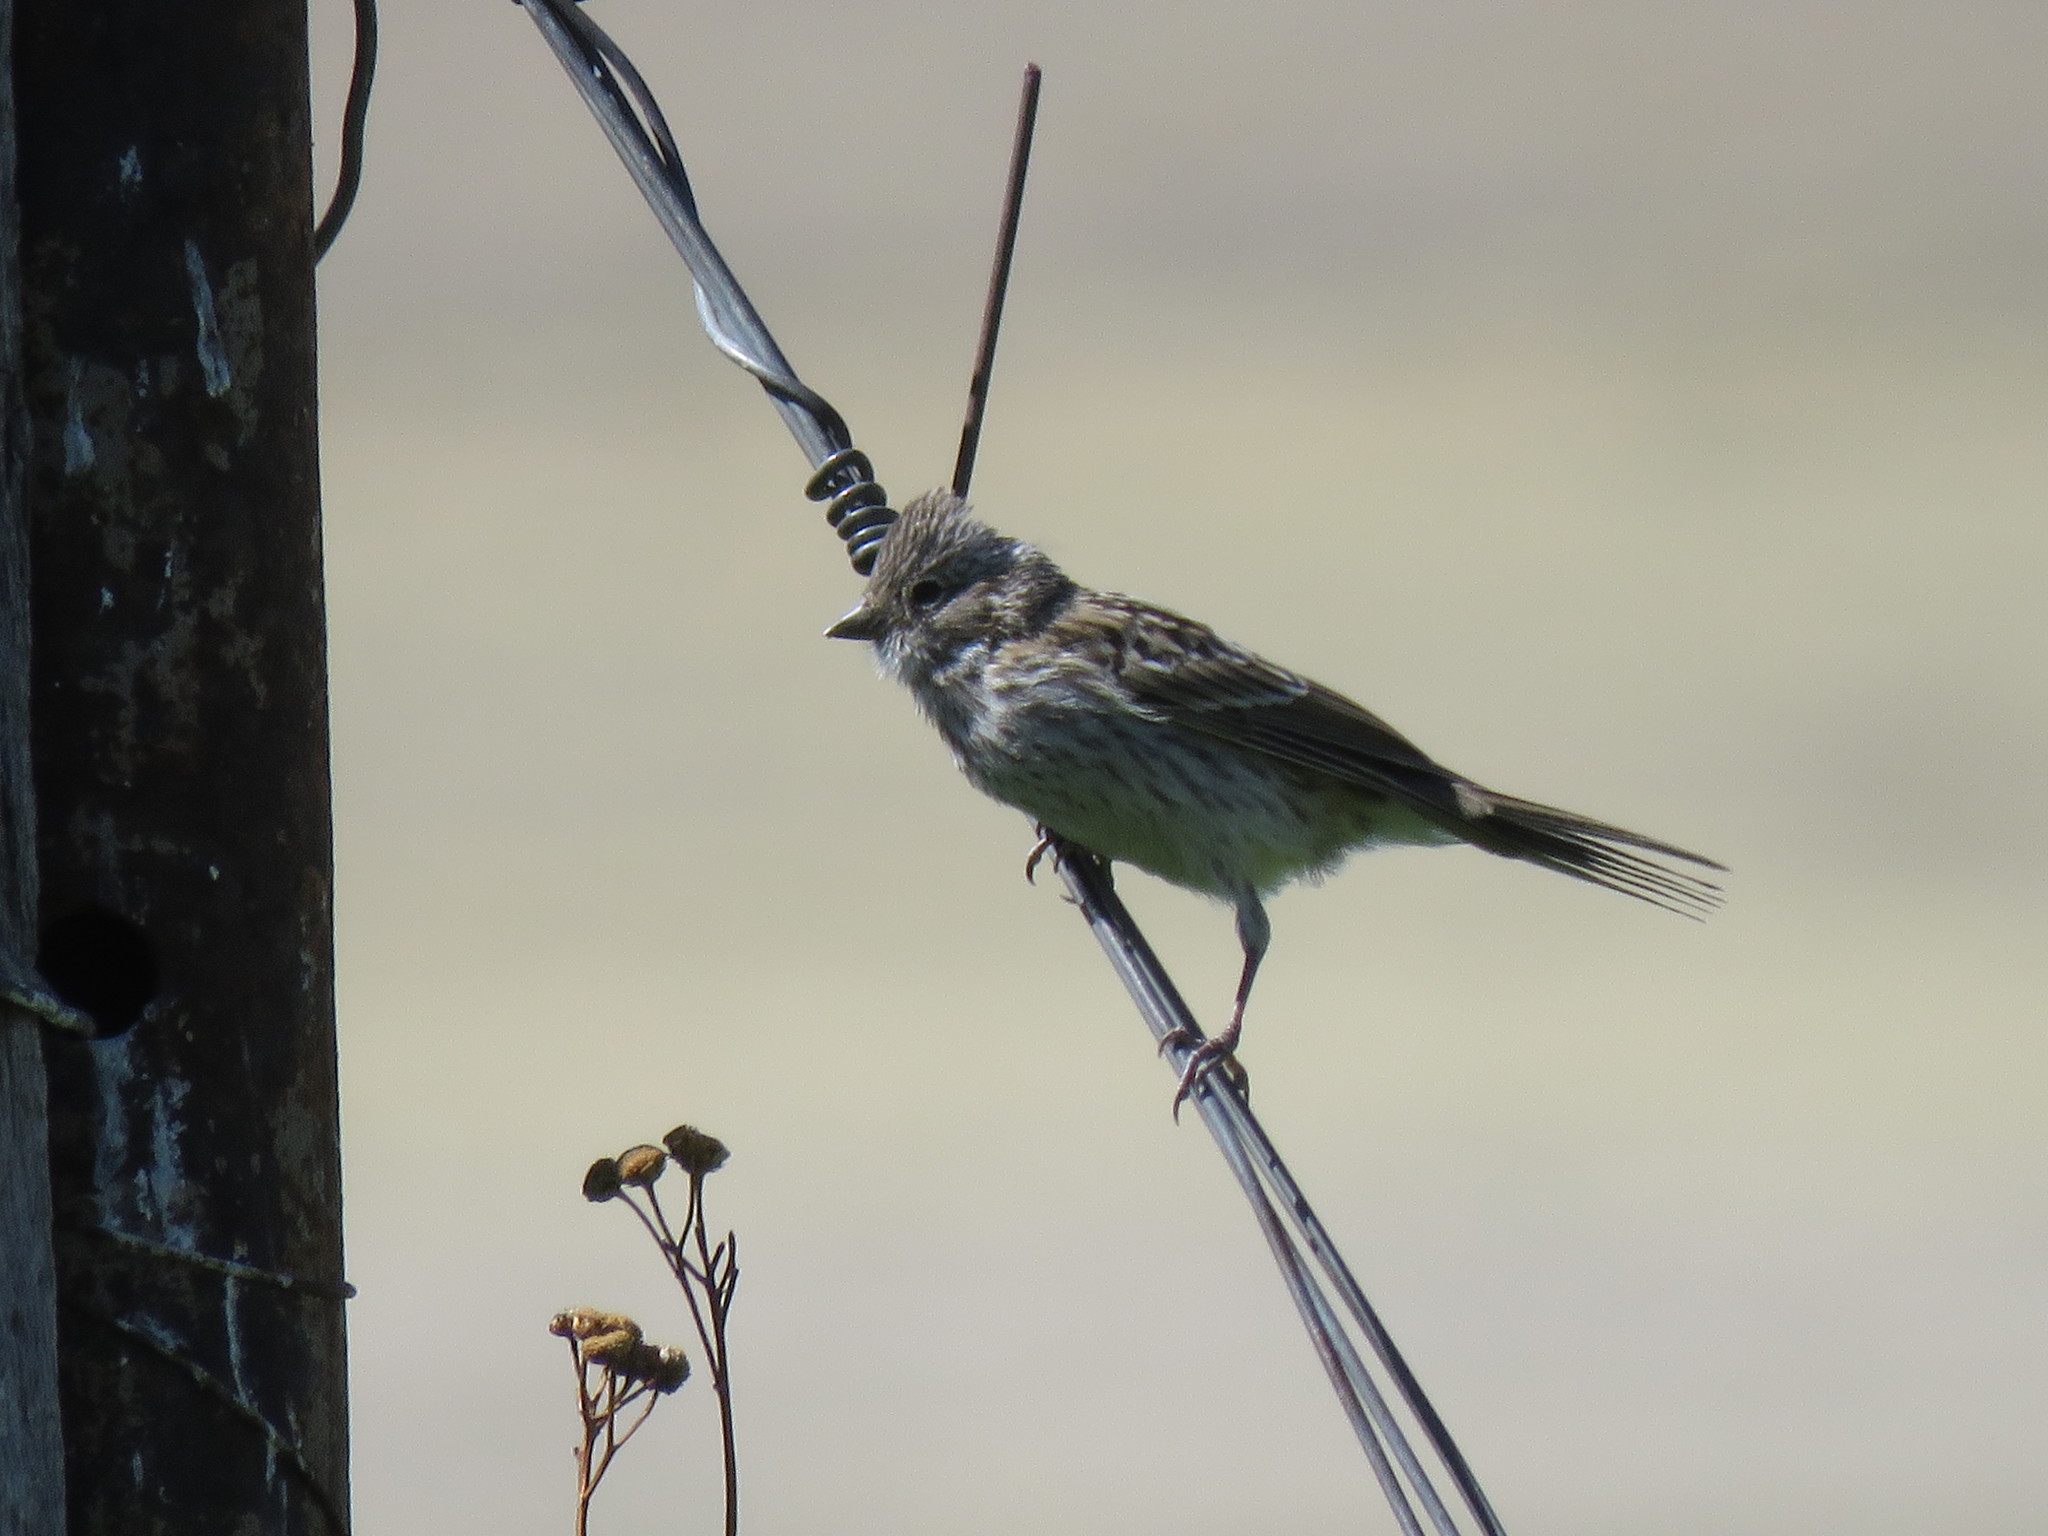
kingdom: Animalia
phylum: Chordata
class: Aves
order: Passeriformes
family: Passerellidae
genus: Zonotrichia
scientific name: Zonotrichia capensis
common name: Rufous-collared sparrow
